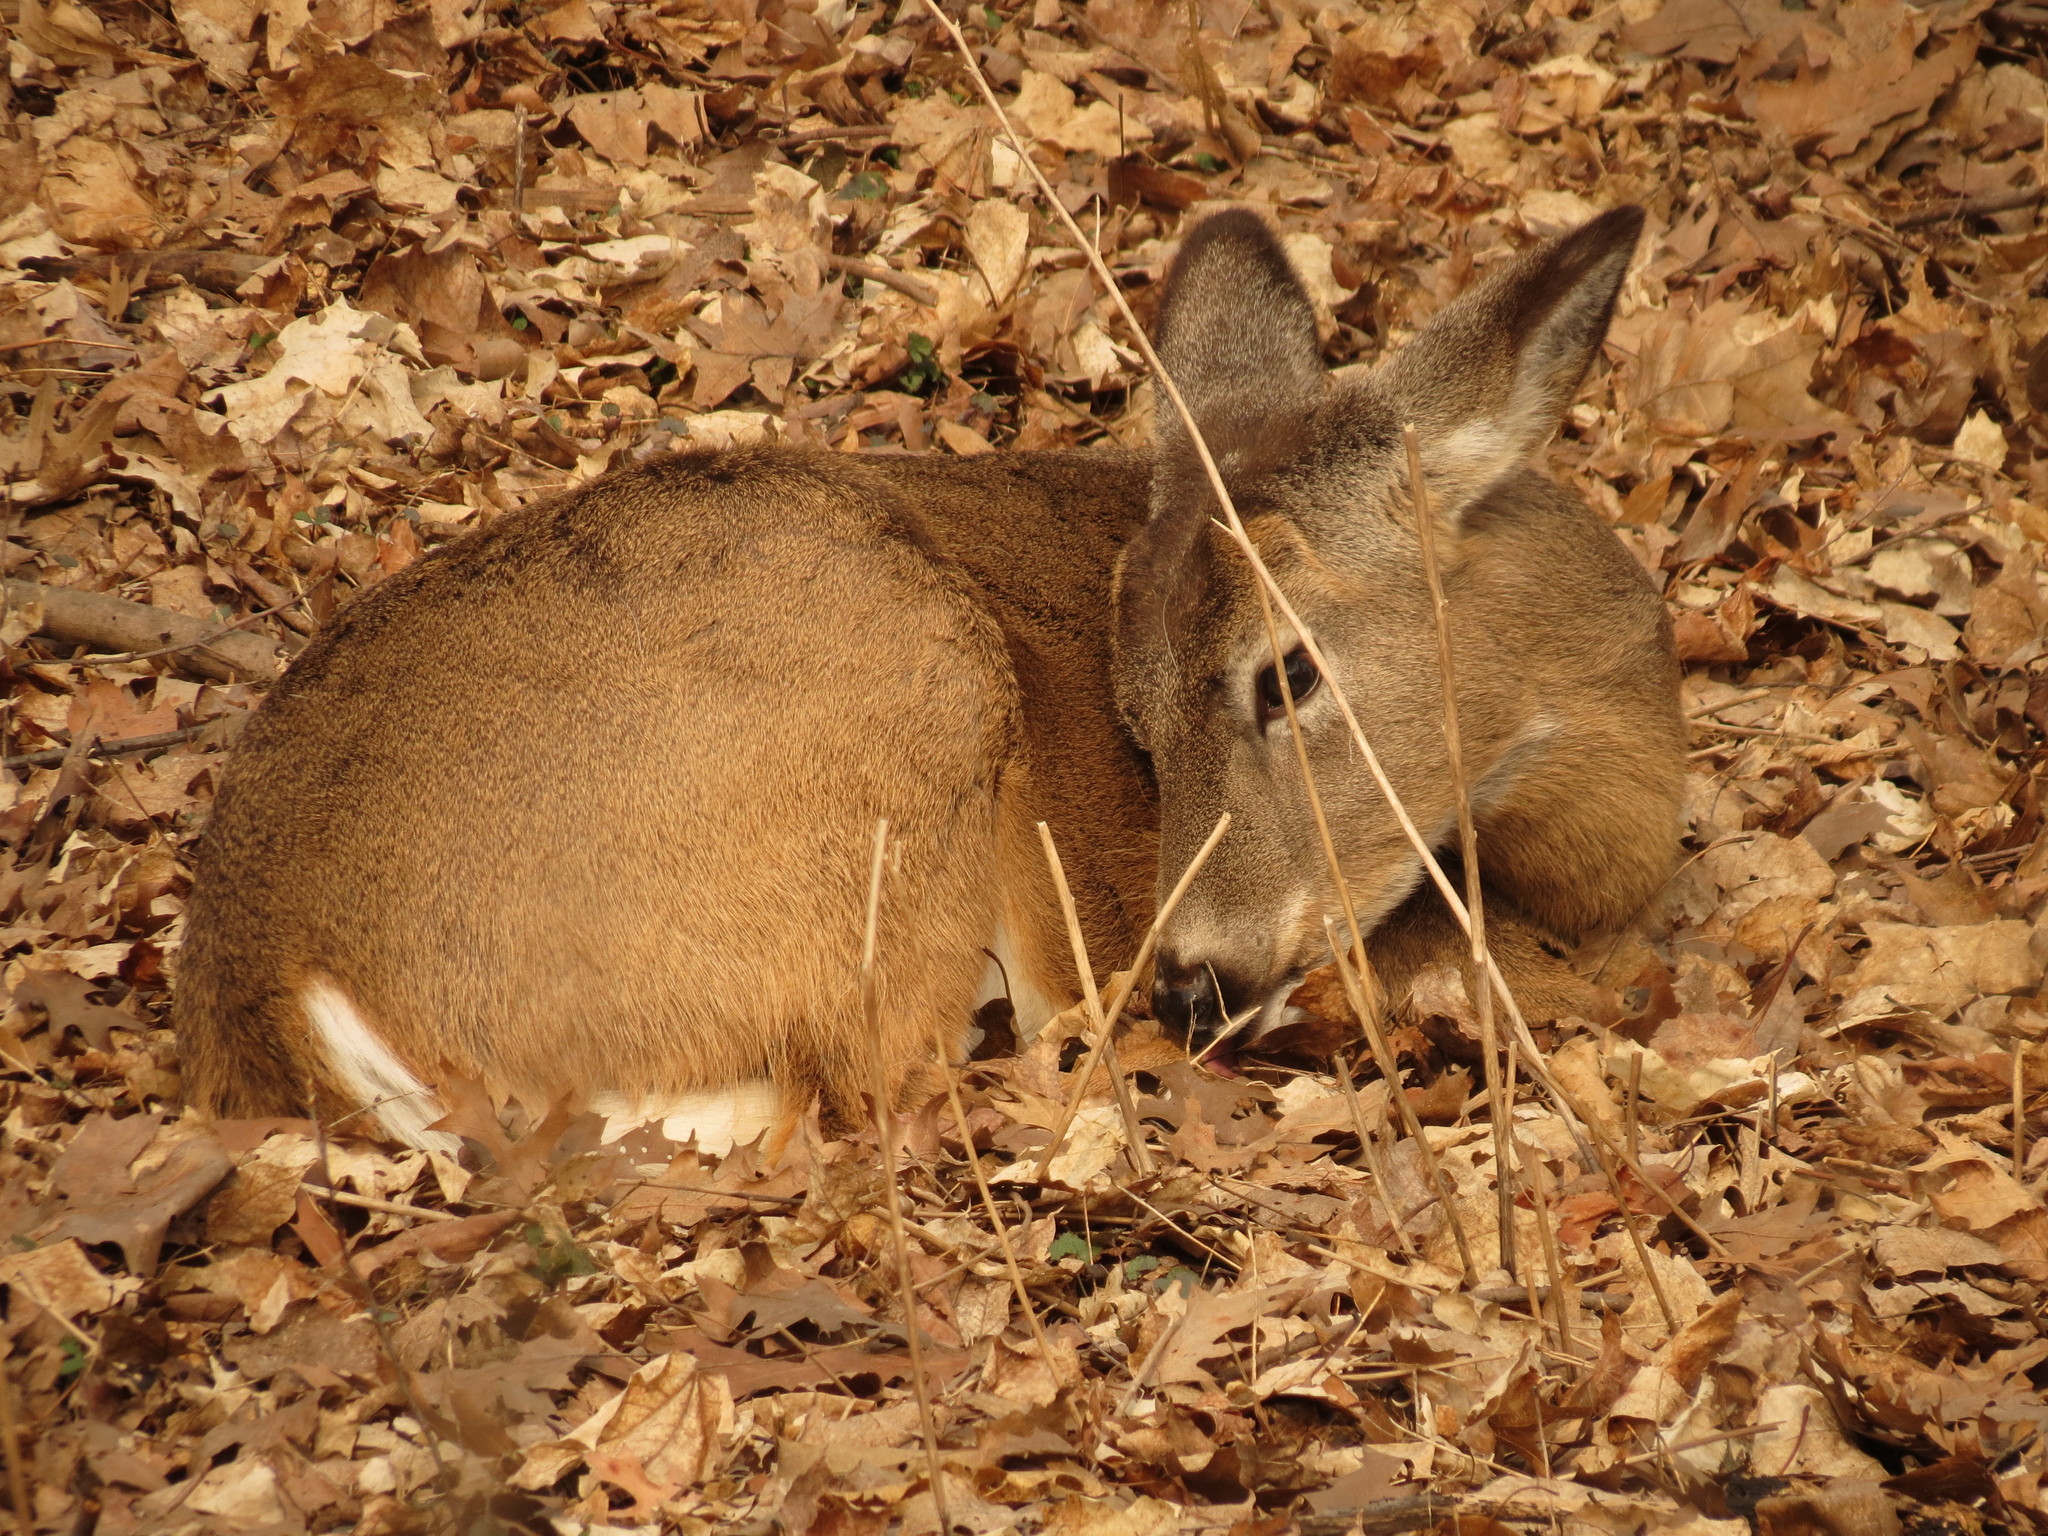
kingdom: Animalia
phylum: Chordata
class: Mammalia
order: Artiodactyla
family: Cervidae
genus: Odocoileus
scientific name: Odocoileus virginianus
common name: White-tailed deer
